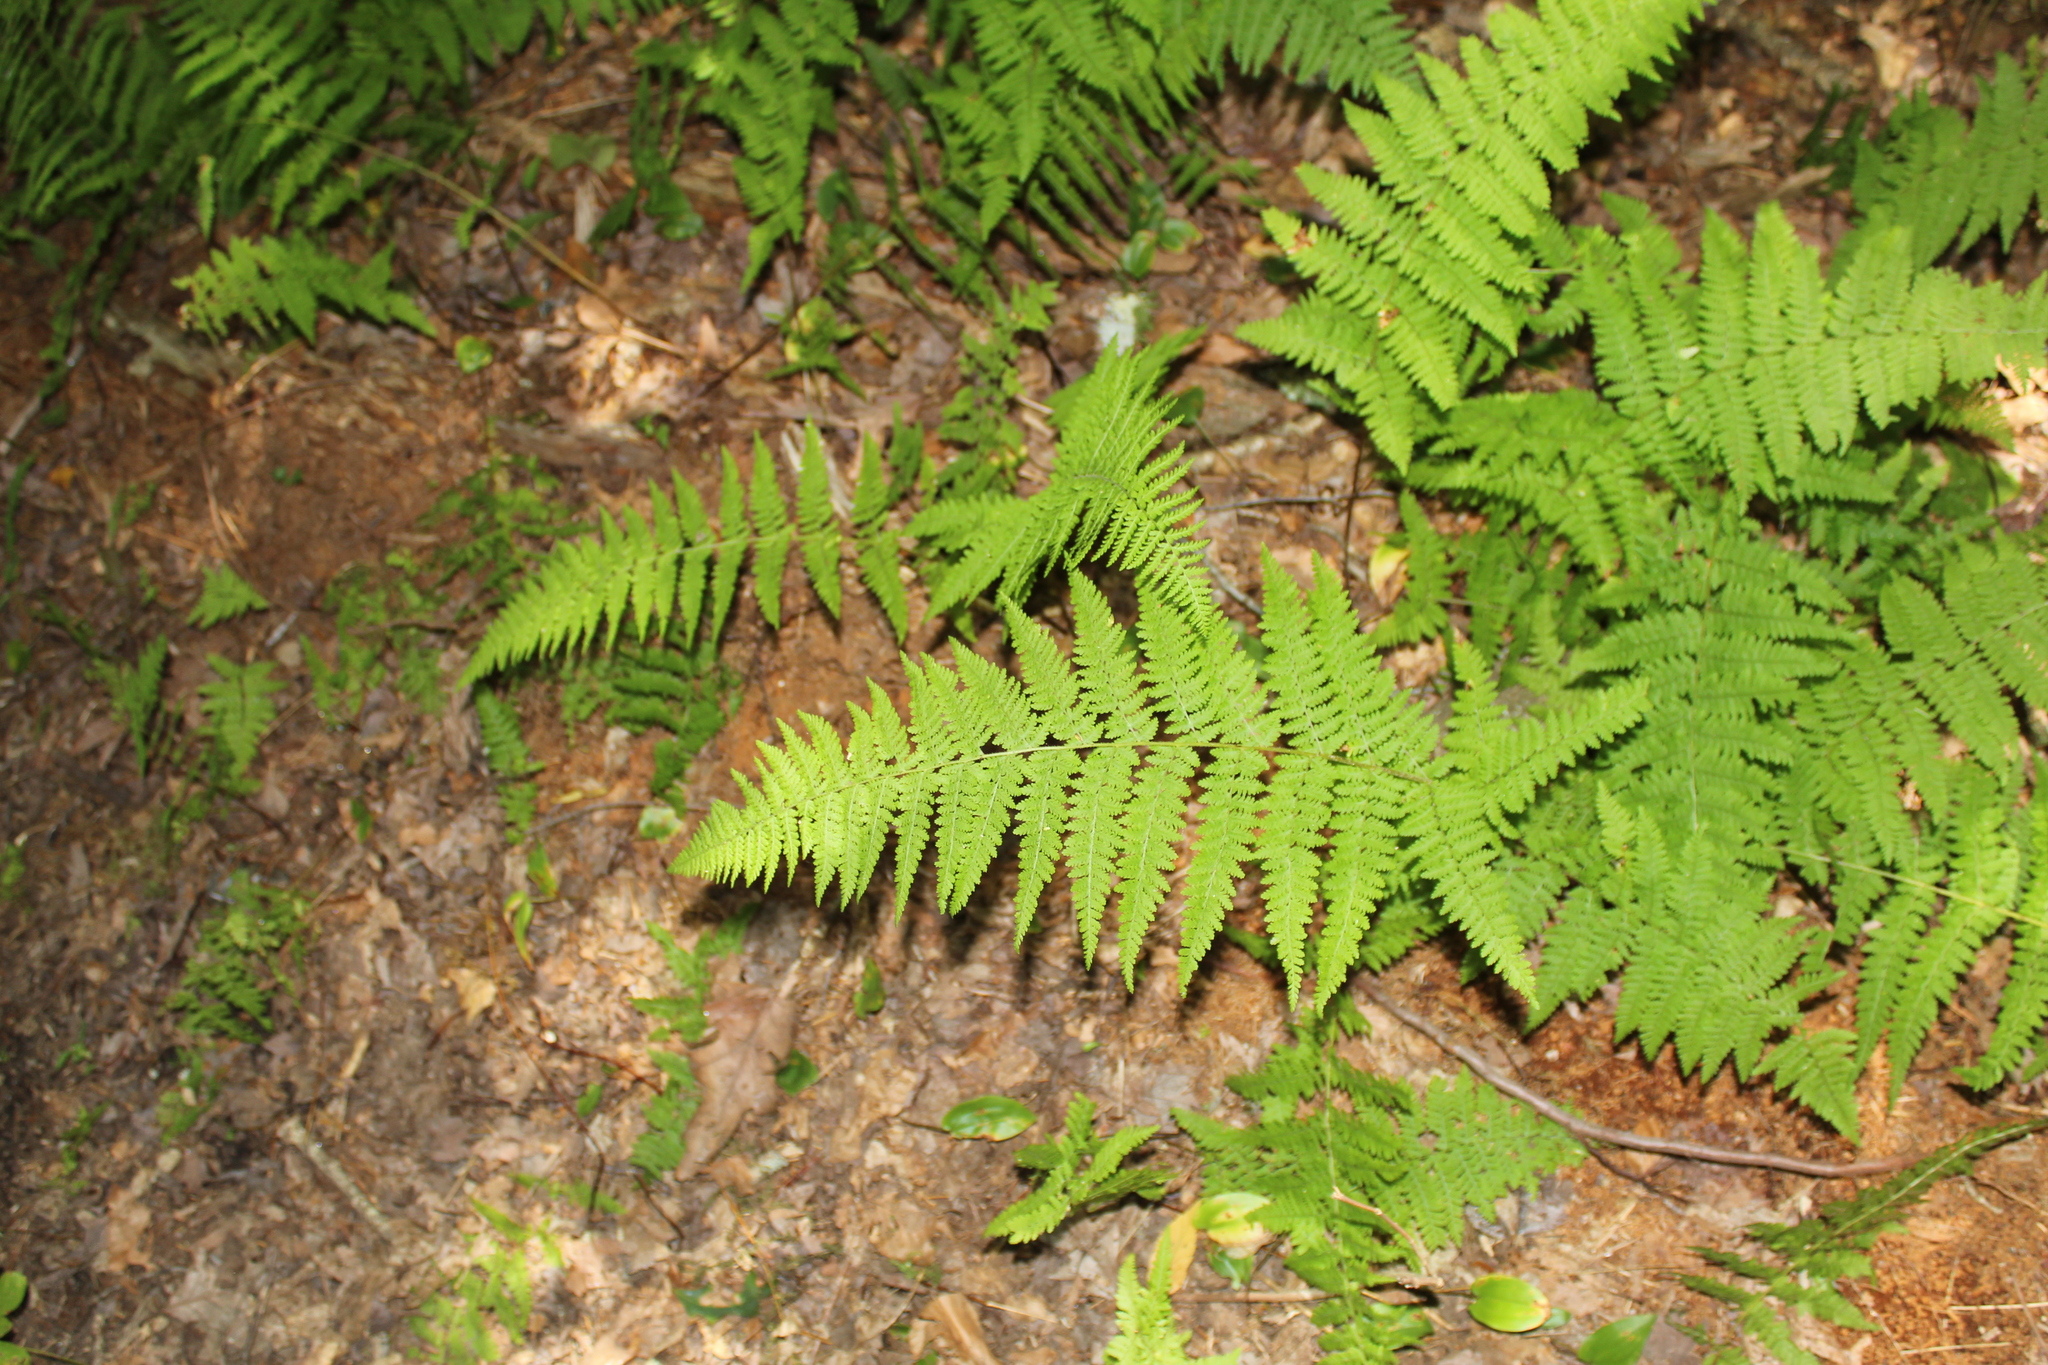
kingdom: Plantae
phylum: Tracheophyta
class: Polypodiopsida
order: Polypodiales
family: Dennstaedtiaceae
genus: Sitobolium
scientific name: Sitobolium punctilobum
